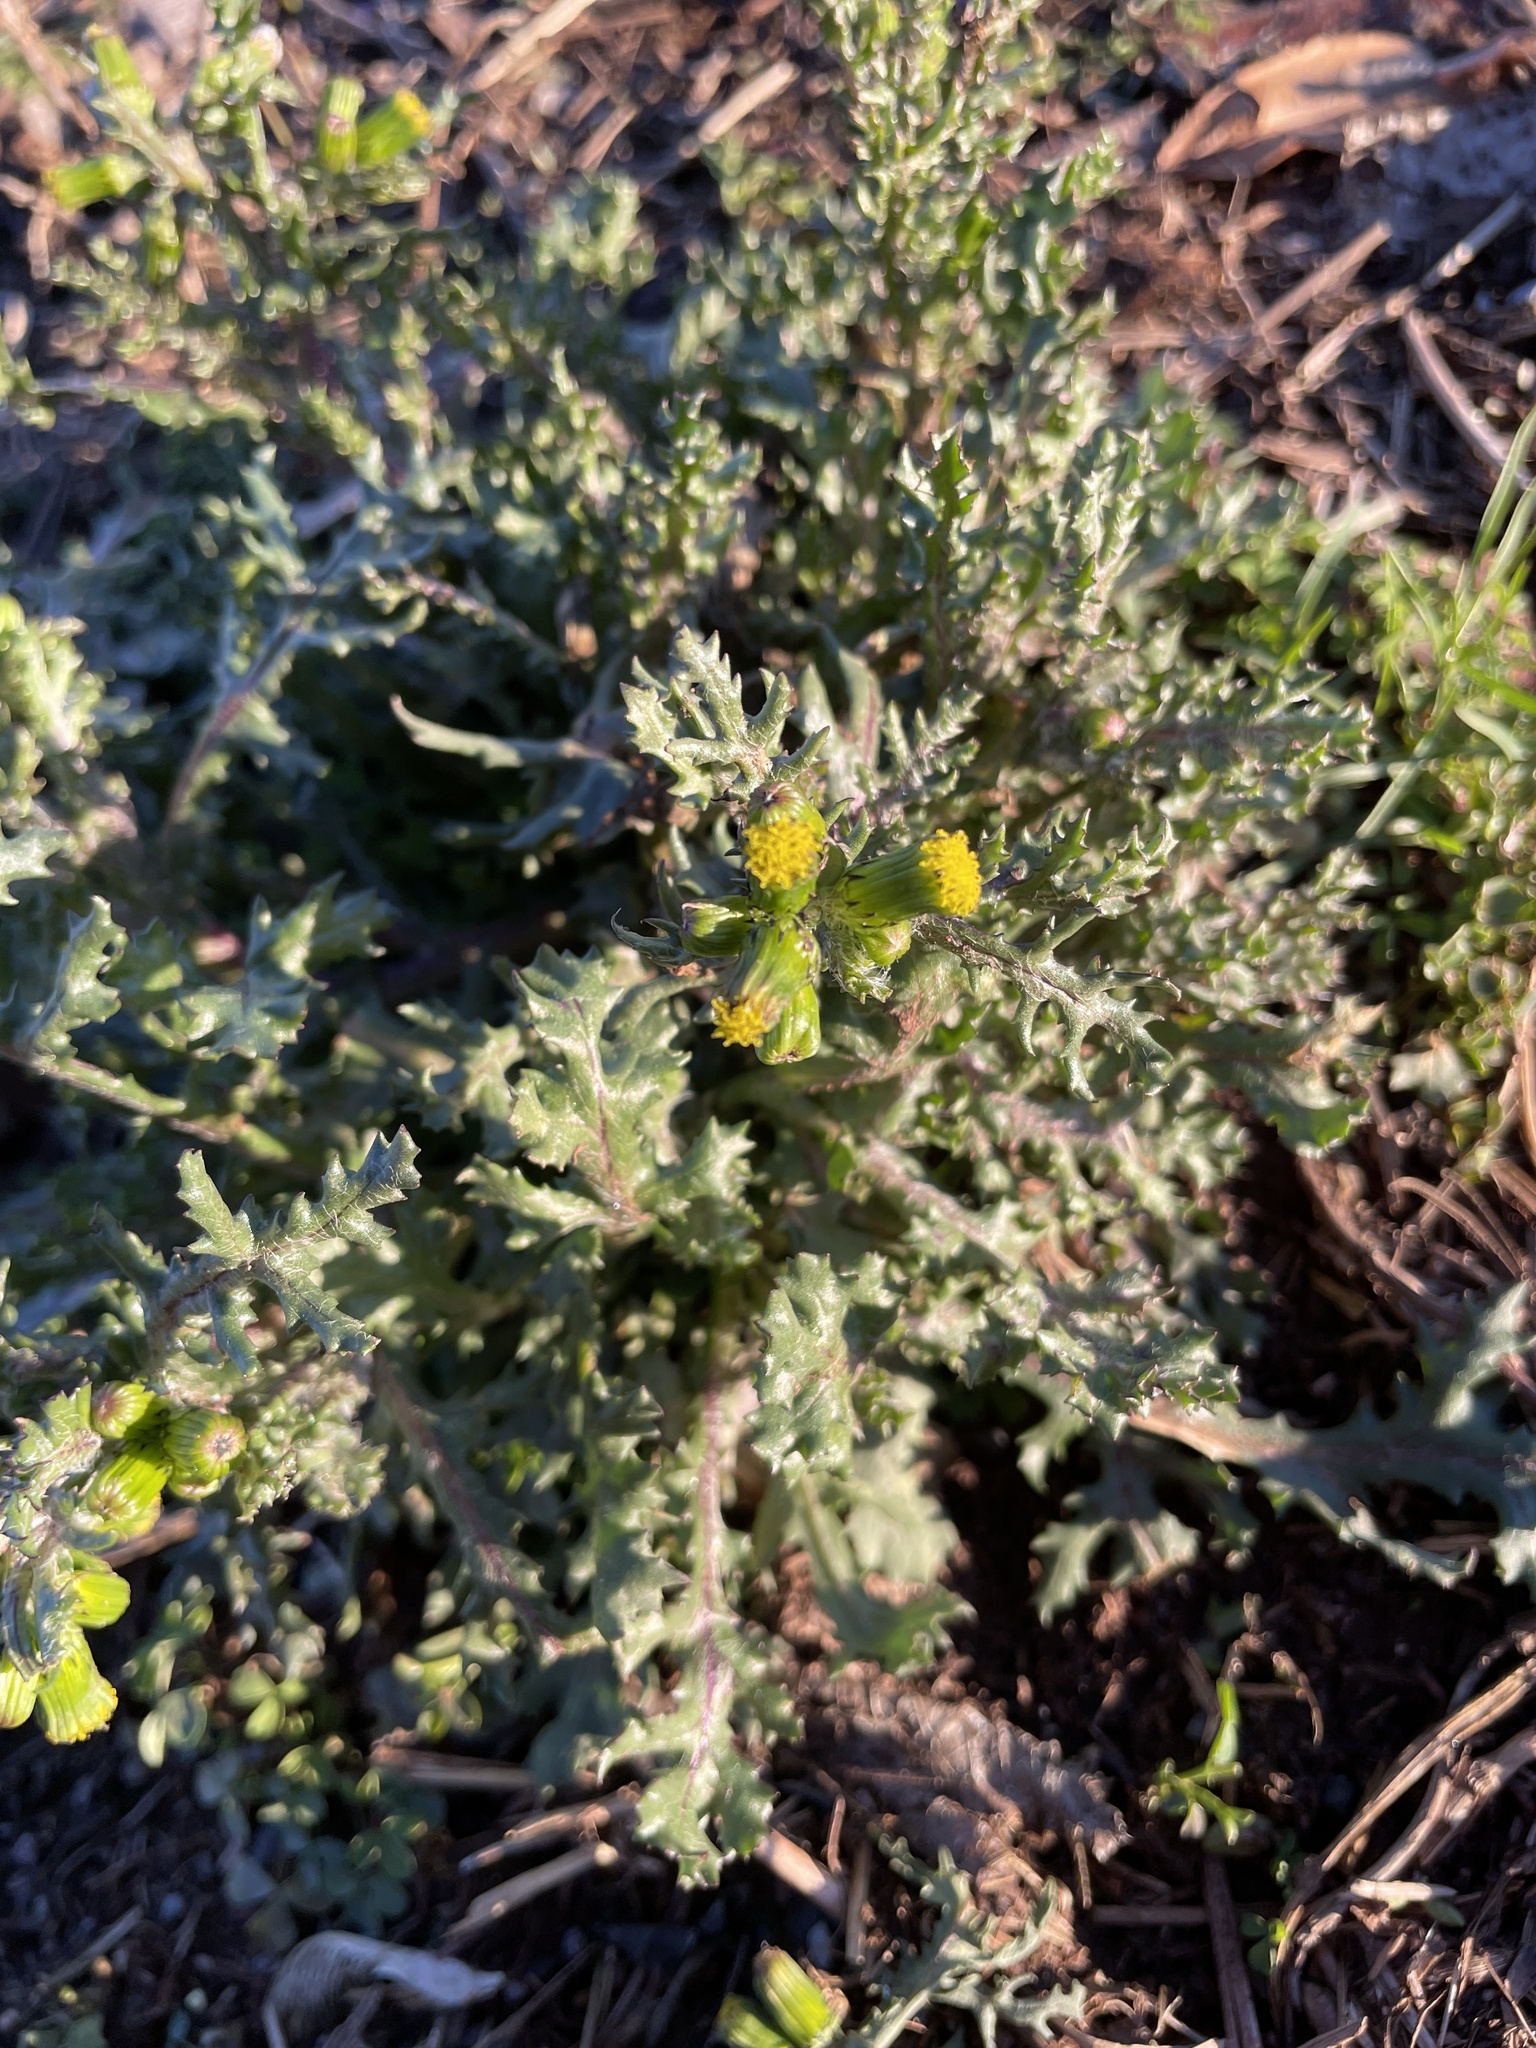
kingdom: Plantae
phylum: Tracheophyta
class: Magnoliopsida
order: Asterales
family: Asteraceae
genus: Senecio
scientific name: Senecio vulgaris
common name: Old-man-in-the-spring
